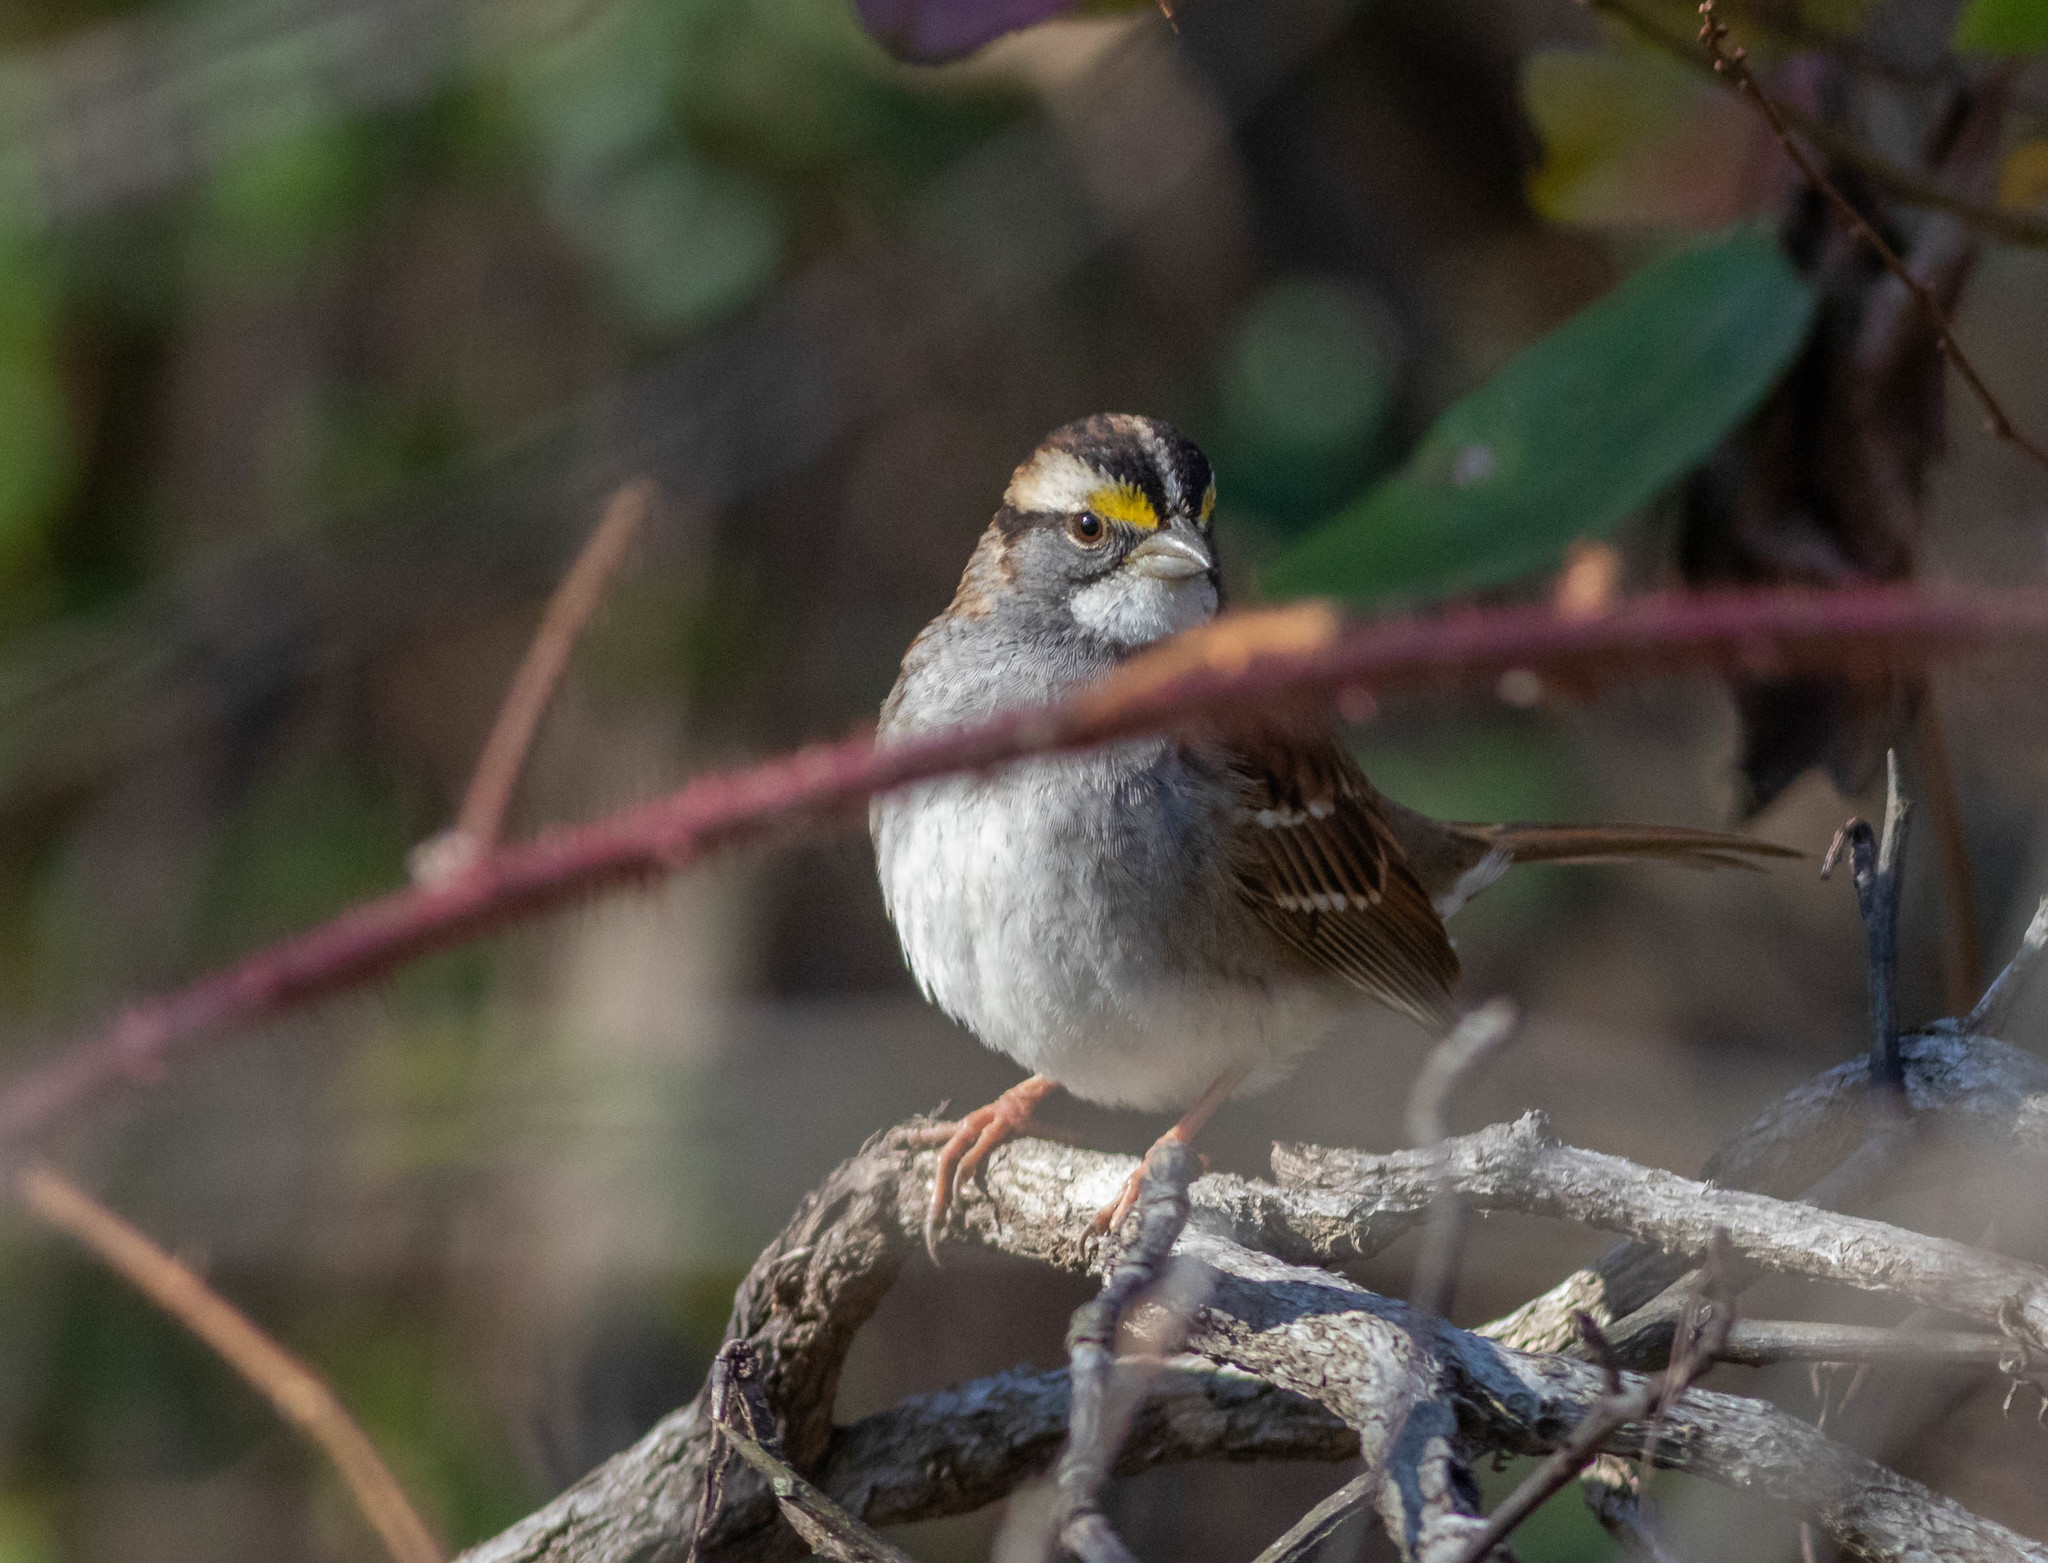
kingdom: Animalia
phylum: Chordata
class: Aves
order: Passeriformes
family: Passerellidae
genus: Zonotrichia
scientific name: Zonotrichia albicollis
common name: White-throated sparrow
